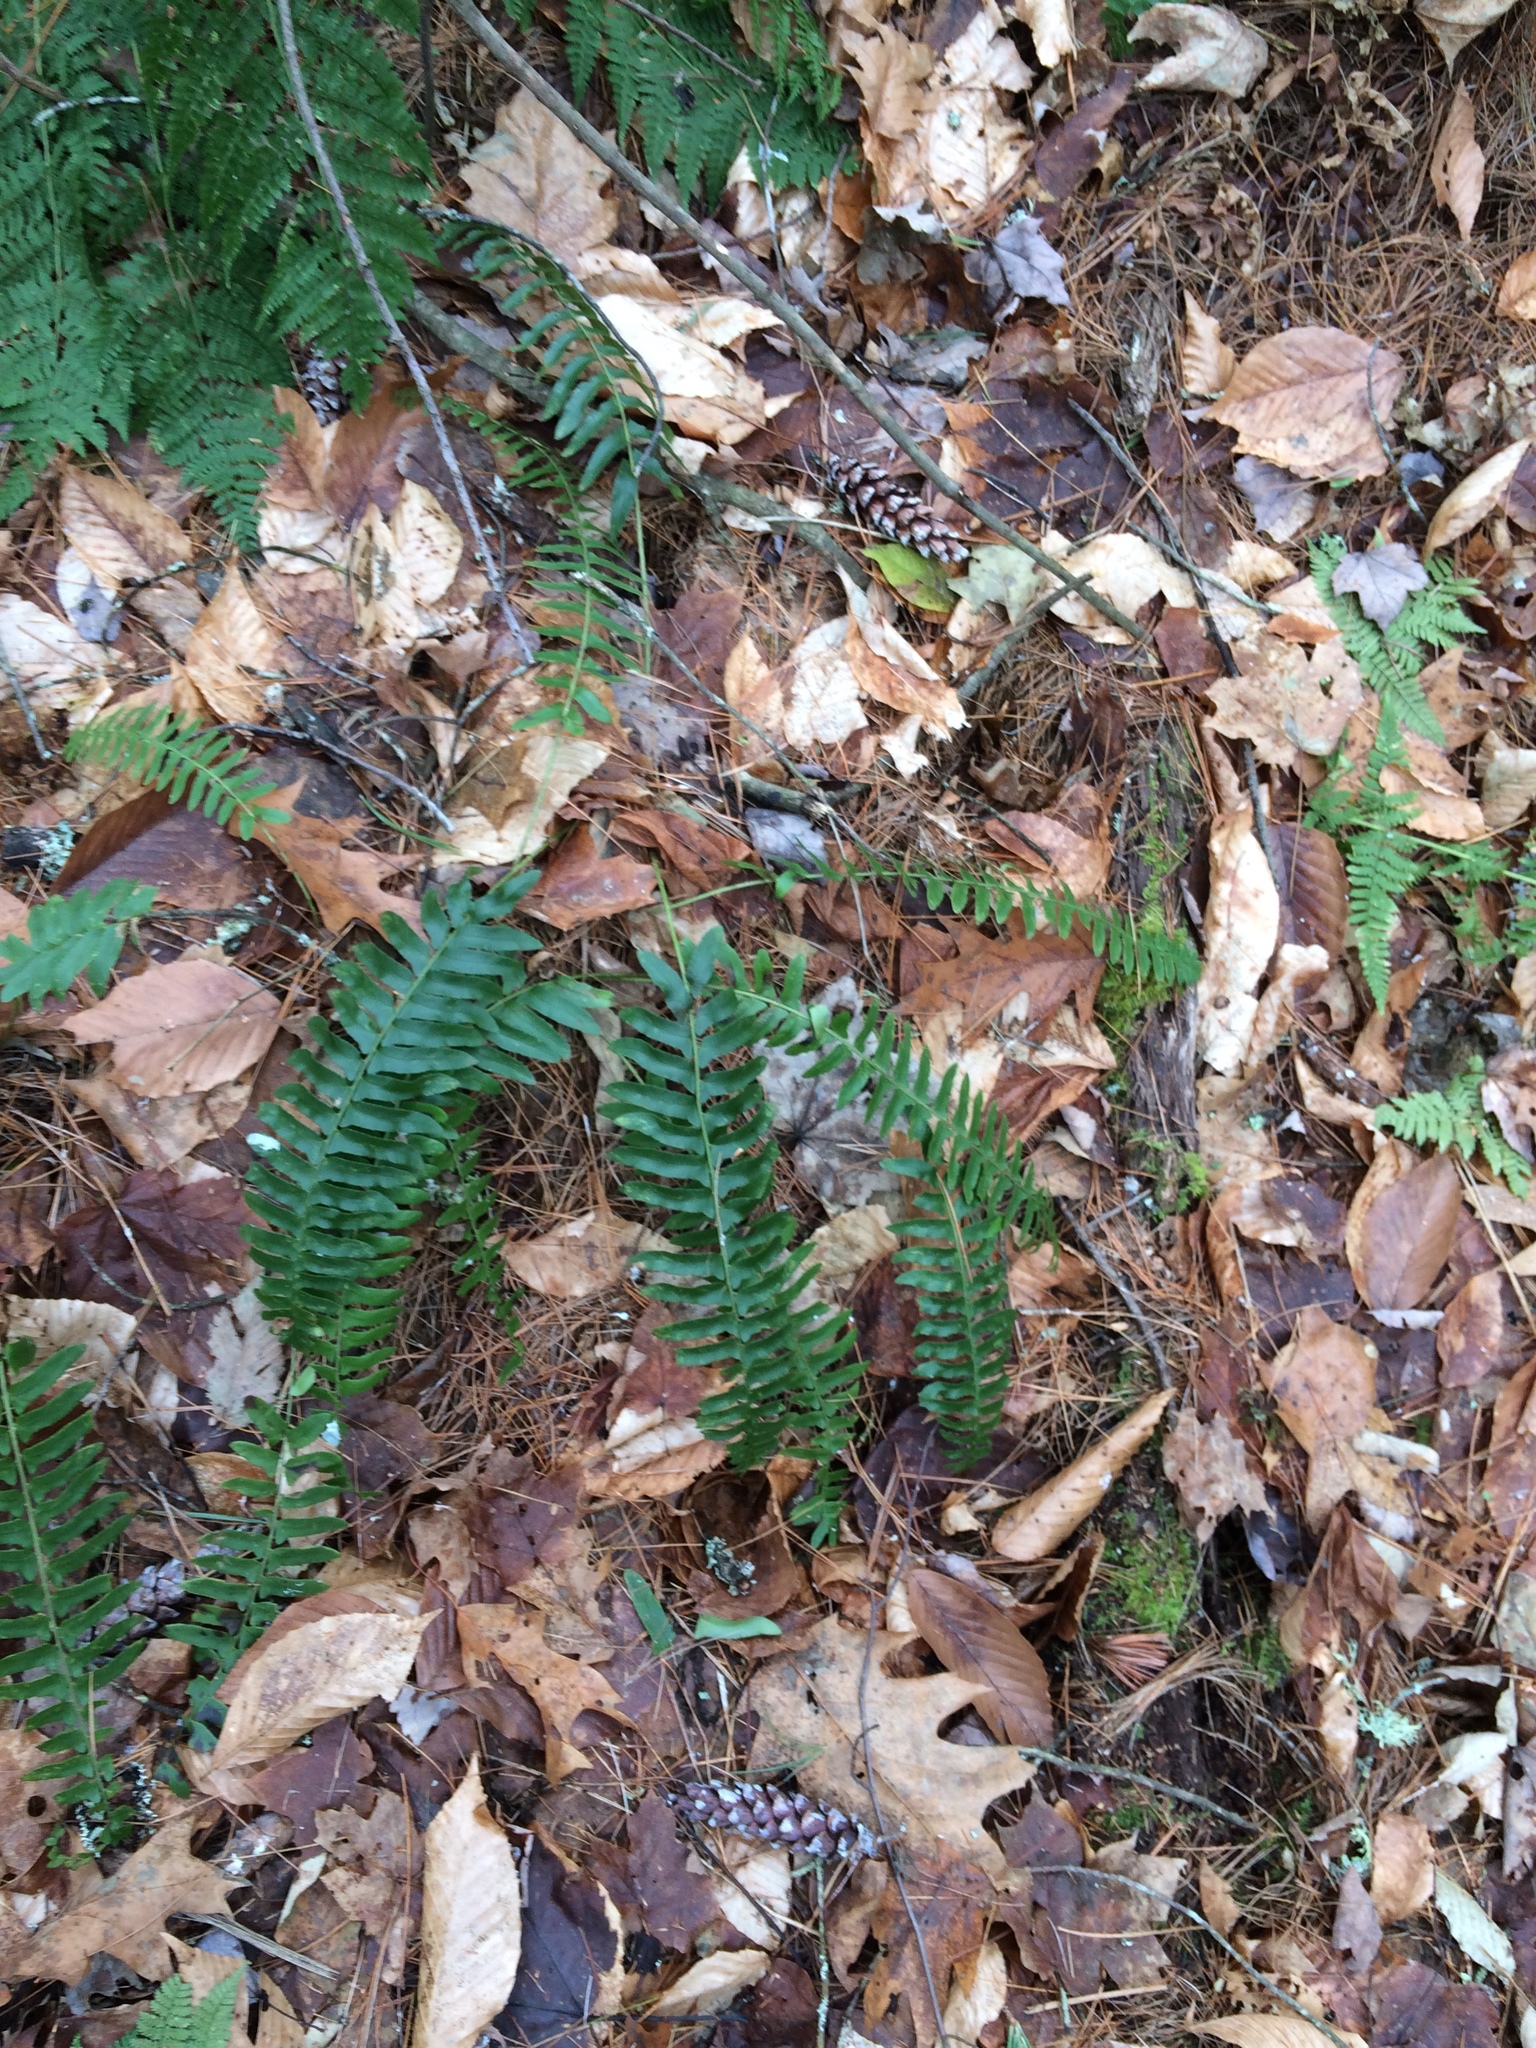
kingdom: Plantae
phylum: Tracheophyta
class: Polypodiopsida
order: Polypodiales
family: Dryopteridaceae
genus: Polystichum
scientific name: Polystichum acrostichoides
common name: Christmas fern
